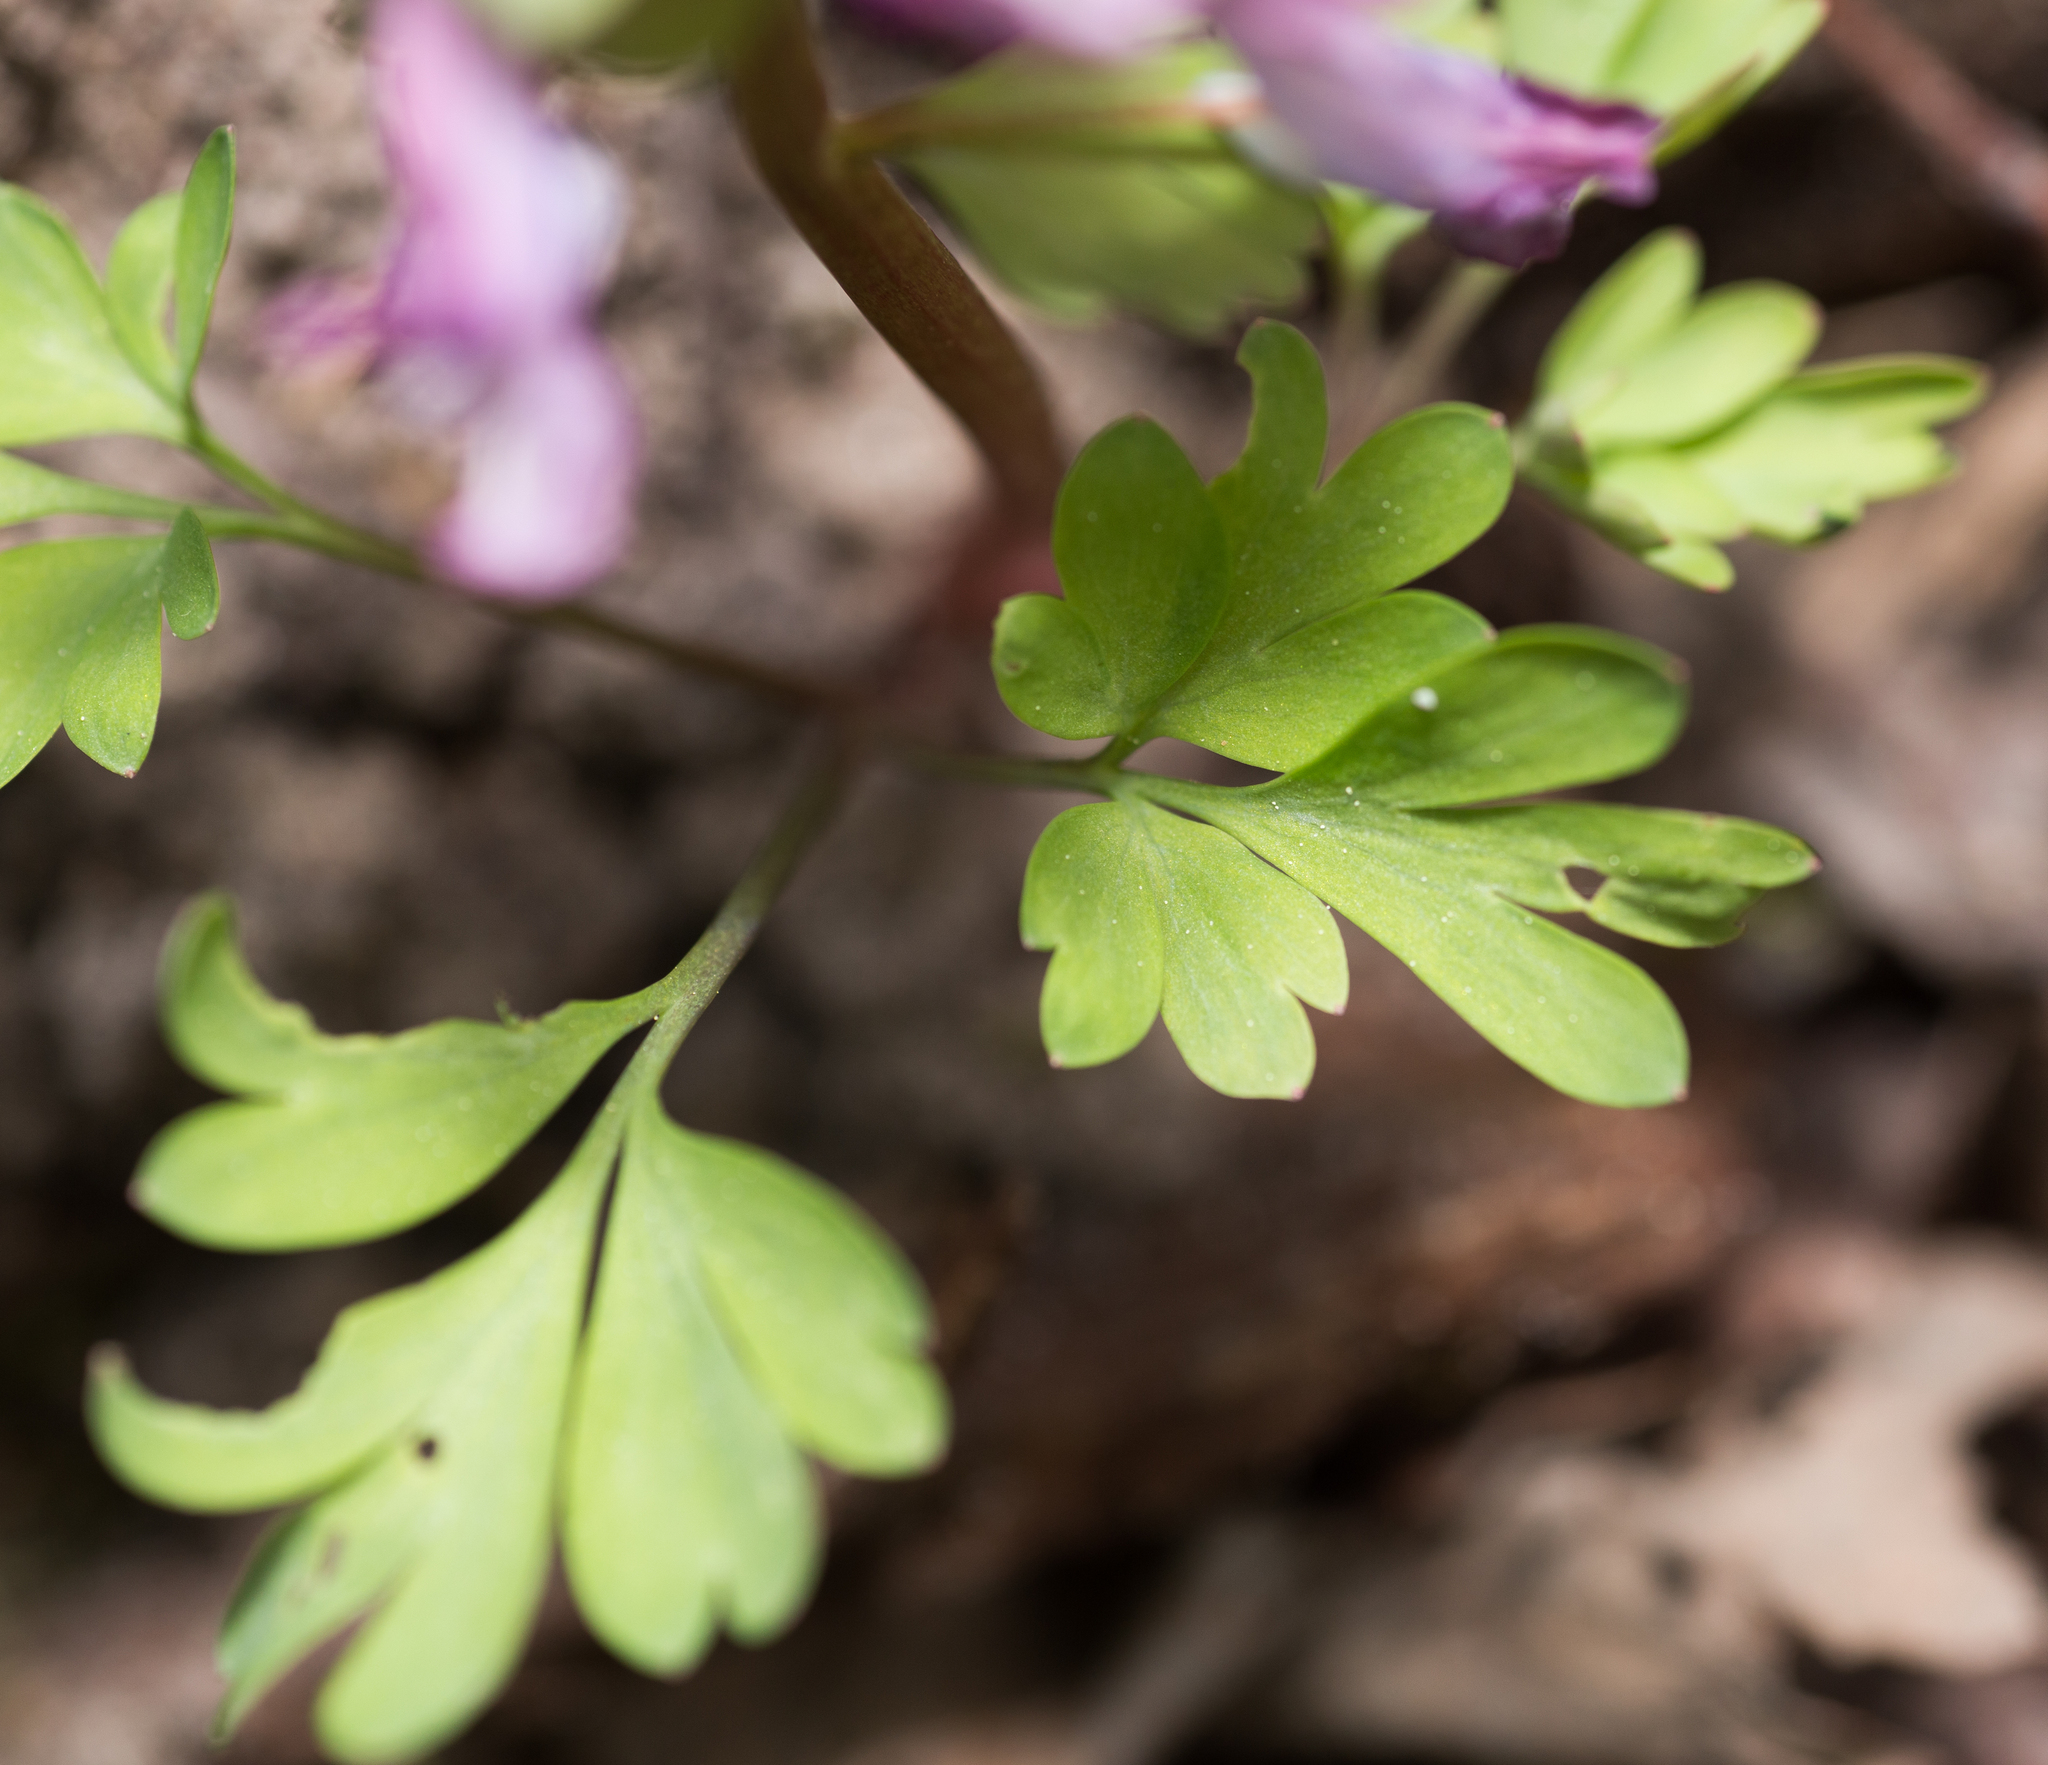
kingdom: Plantae
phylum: Tracheophyta
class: Magnoliopsida
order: Ranunculales
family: Papaveraceae
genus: Corydalis
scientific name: Corydalis solida
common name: Bird-in-a-bush
